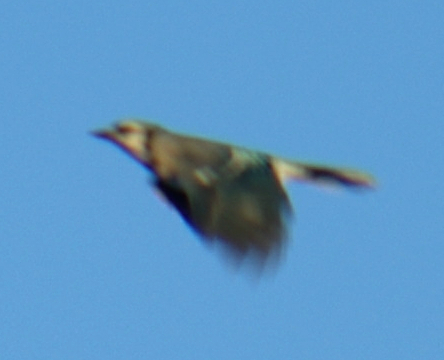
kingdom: Animalia
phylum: Chordata
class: Aves
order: Passeriformes
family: Corvidae
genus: Cyanocitta
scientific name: Cyanocitta cristata
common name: Blue jay
